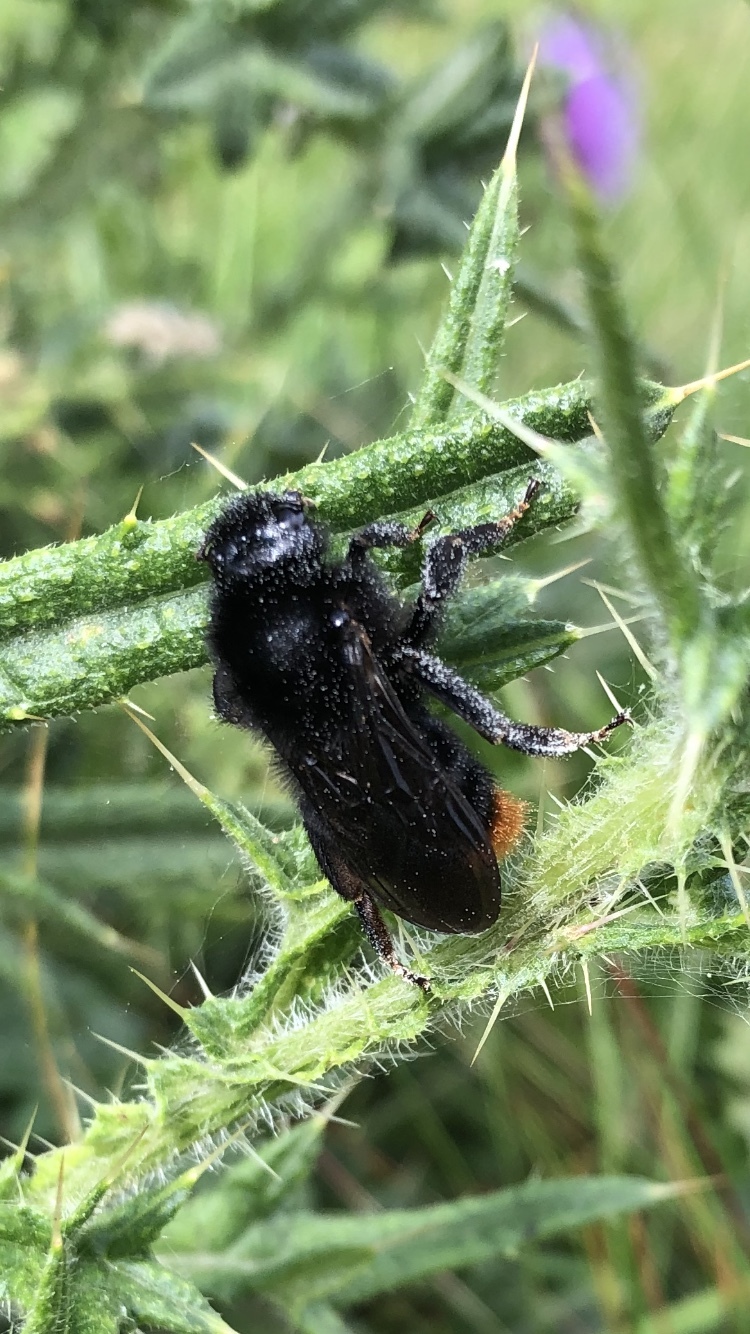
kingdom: Animalia
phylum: Arthropoda
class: Insecta
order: Hymenoptera
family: Apidae
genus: Bombus
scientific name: Bombus rupestris
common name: Hill cuckoo-bee
